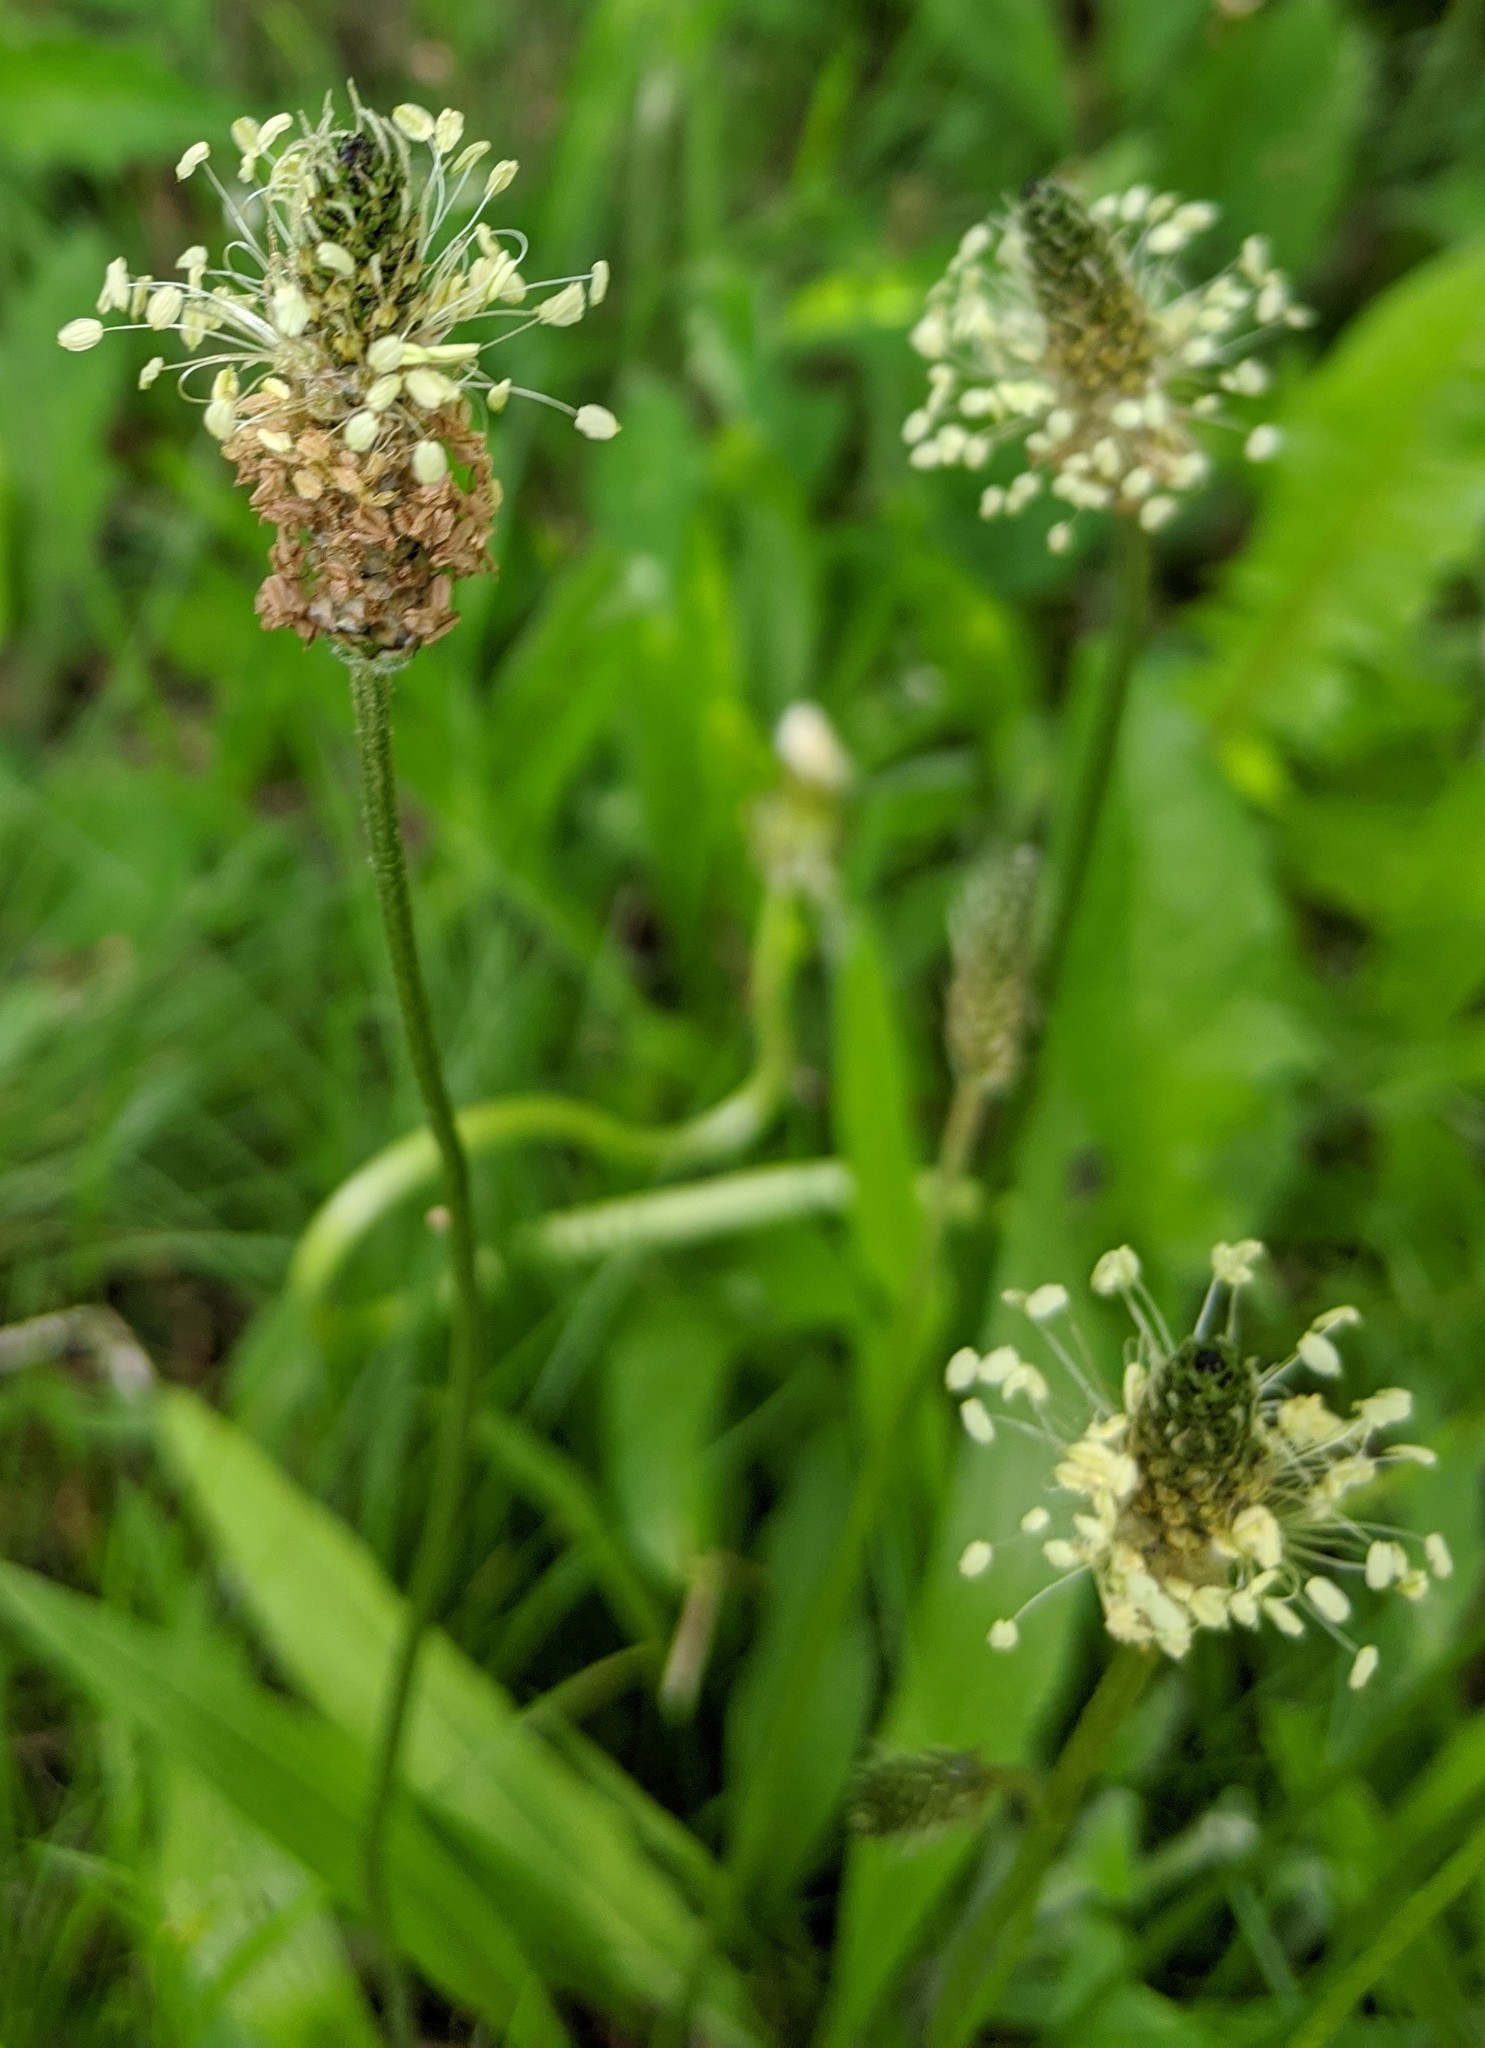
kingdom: Plantae
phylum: Tracheophyta
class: Magnoliopsida
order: Lamiales
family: Plantaginaceae
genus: Plantago
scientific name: Plantago lanceolata
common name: Ribwort plantain
